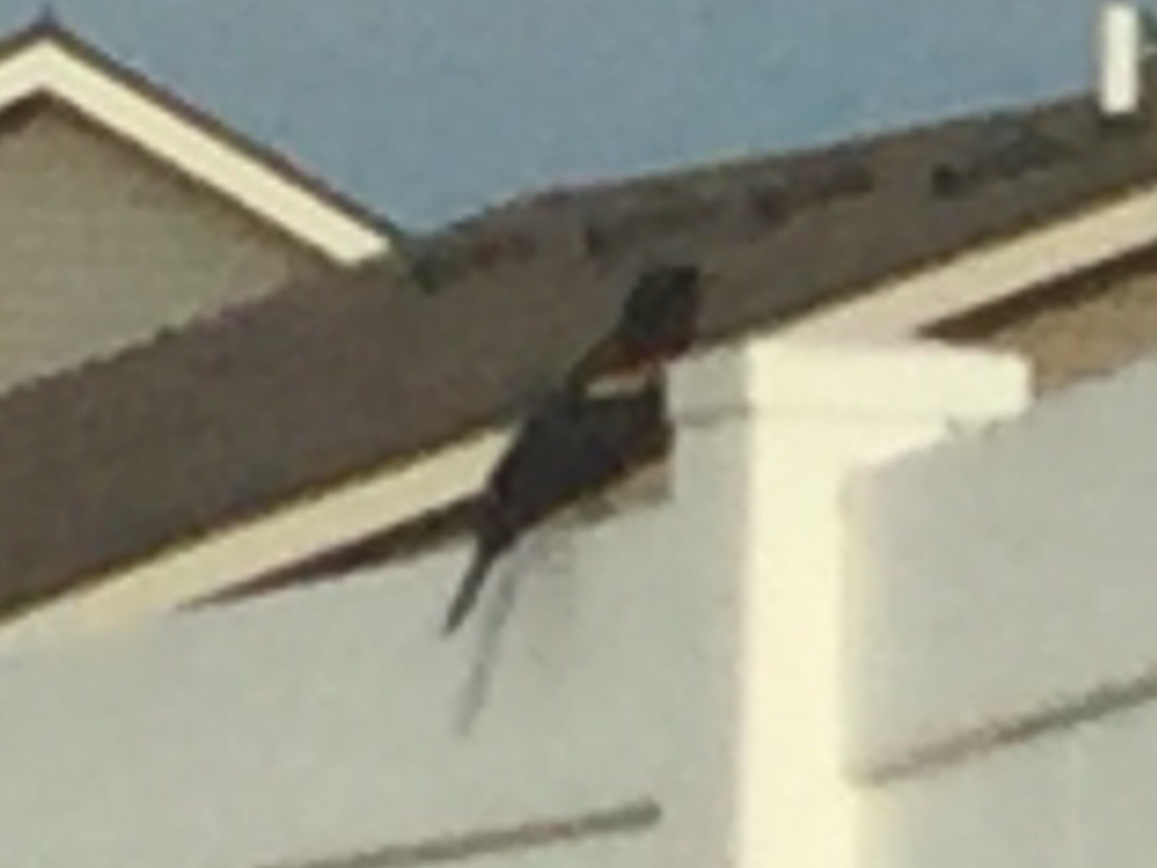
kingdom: Animalia
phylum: Chordata
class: Aves
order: Passeriformes
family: Icteridae
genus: Agelaius
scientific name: Agelaius phoeniceus
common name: Red-winged blackbird
